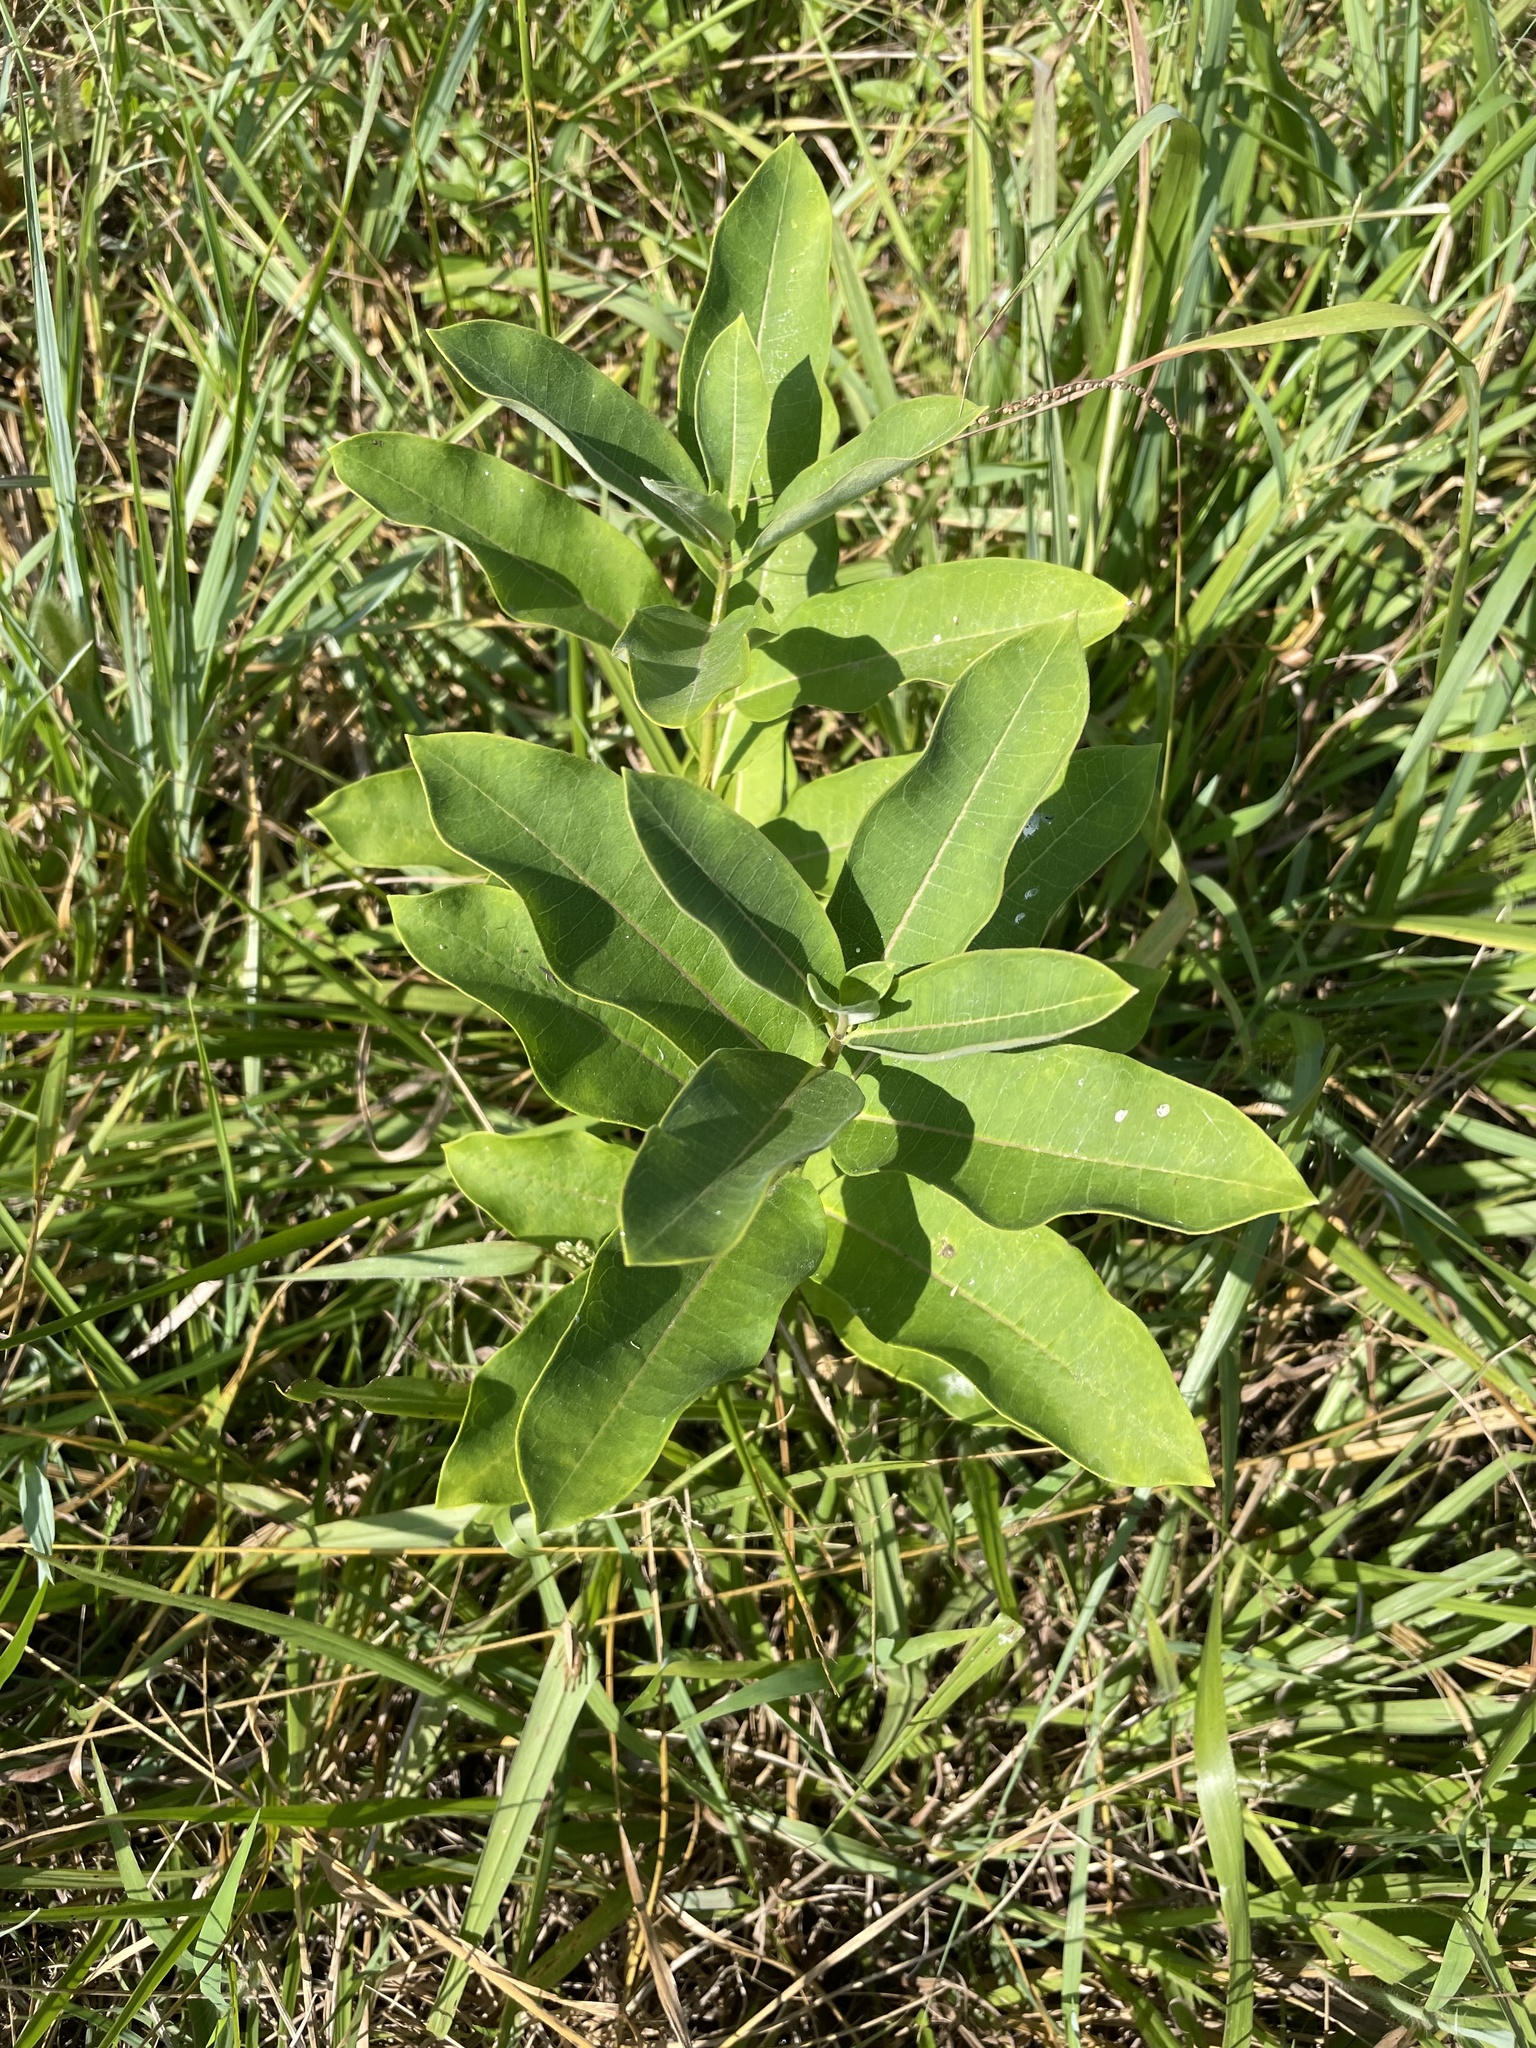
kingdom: Plantae
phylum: Tracheophyta
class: Magnoliopsida
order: Gentianales
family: Apocynaceae
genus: Asclepias
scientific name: Asclepias syriaca
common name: Common milkweed
